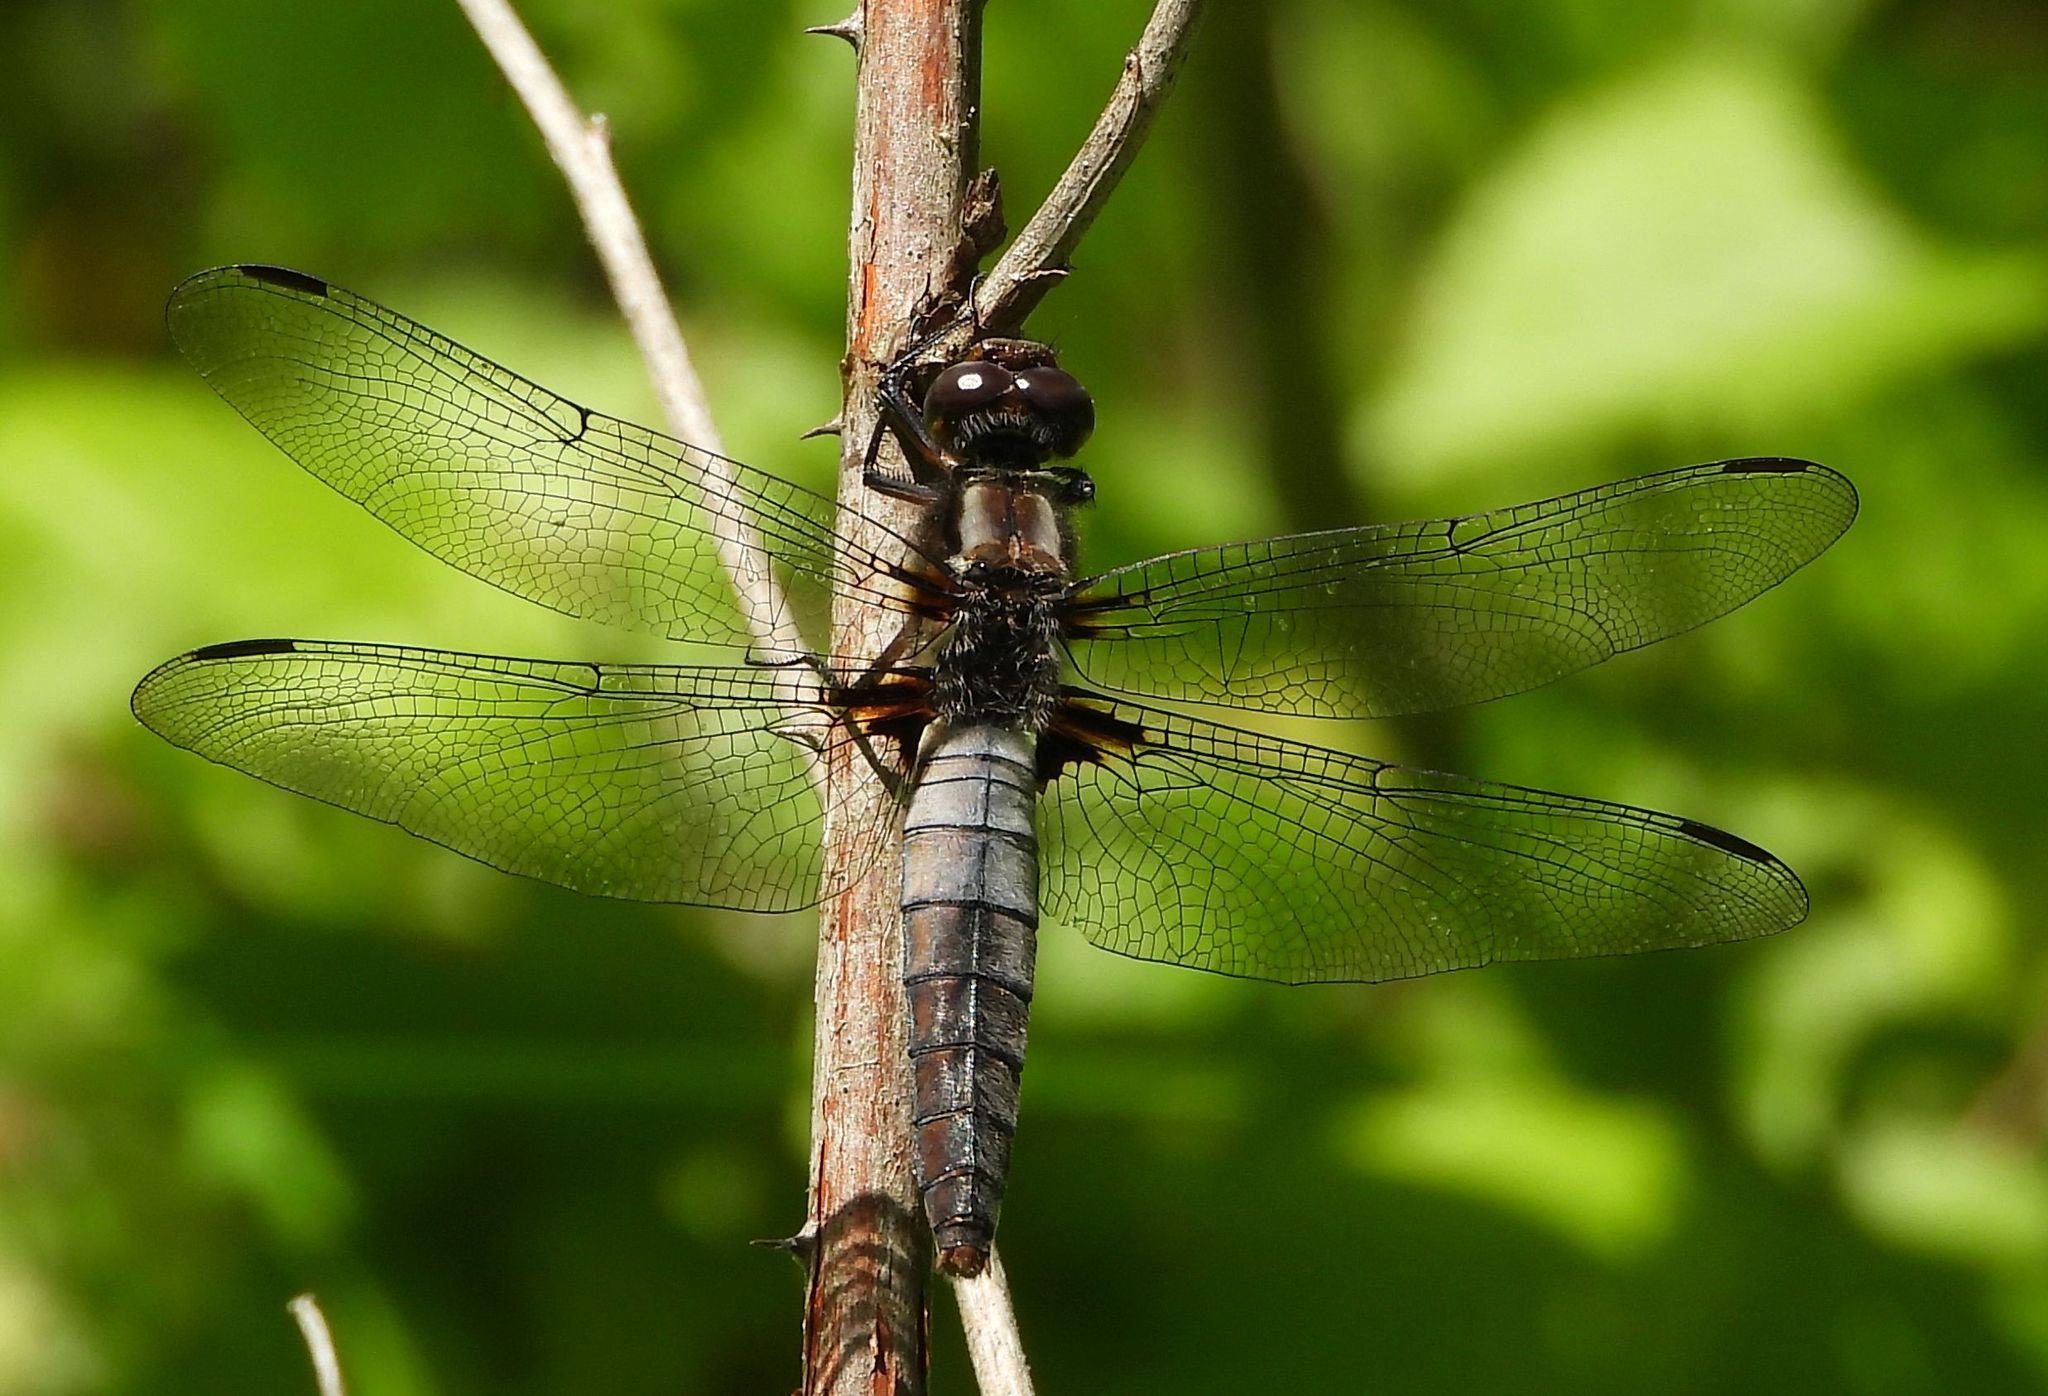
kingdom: Animalia
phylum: Arthropoda
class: Insecta
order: Odonata
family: Libellulidae
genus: Ladona
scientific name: Ladona julia
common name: Chalk-fronted corporal
